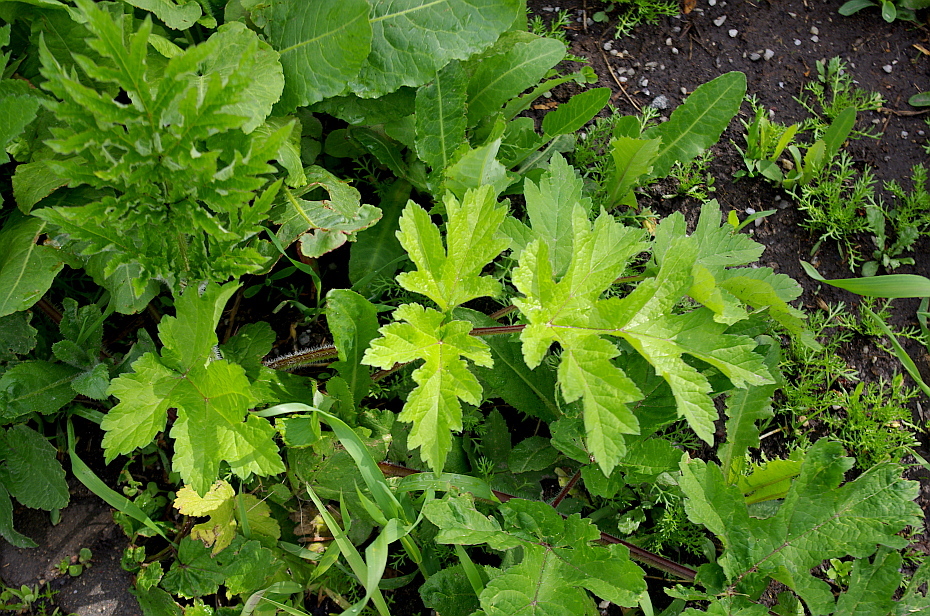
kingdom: Plantae
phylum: Tracheophyta
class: Magnoliopsida
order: Apiales
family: Apiaceae
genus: Heracleum
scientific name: Heracleum sphondylium
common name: Hogweed
